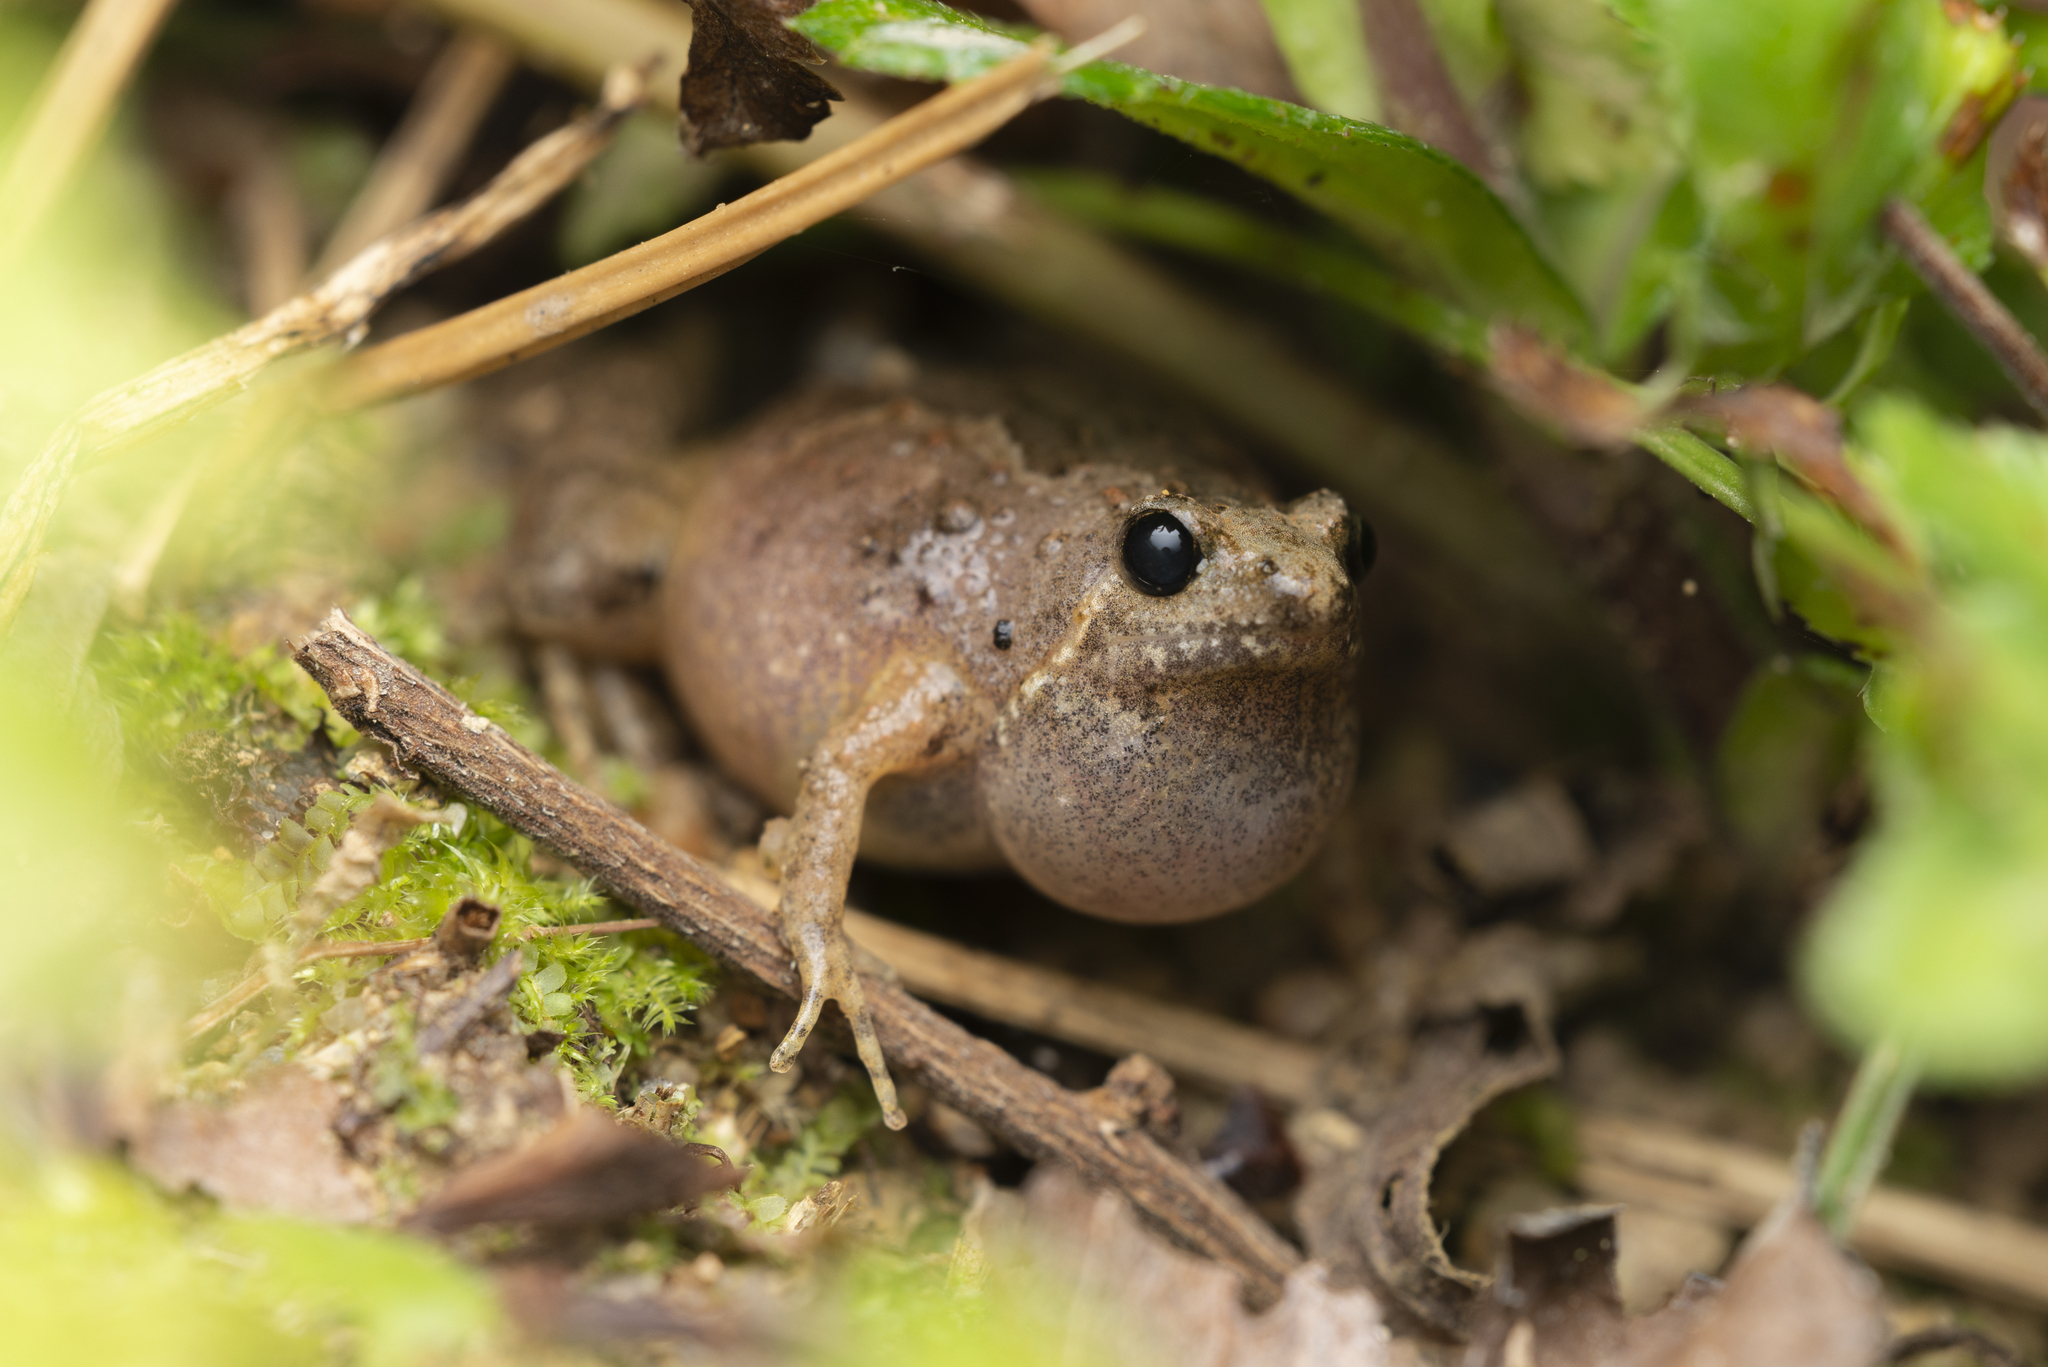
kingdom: Animalia
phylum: Chordata
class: Amphibia
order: Anura
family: Microhylidae
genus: Microhyla
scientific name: Microhyla butleri
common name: Butler’s rice frog,painted chorus frog,tubercled pygmy frog
